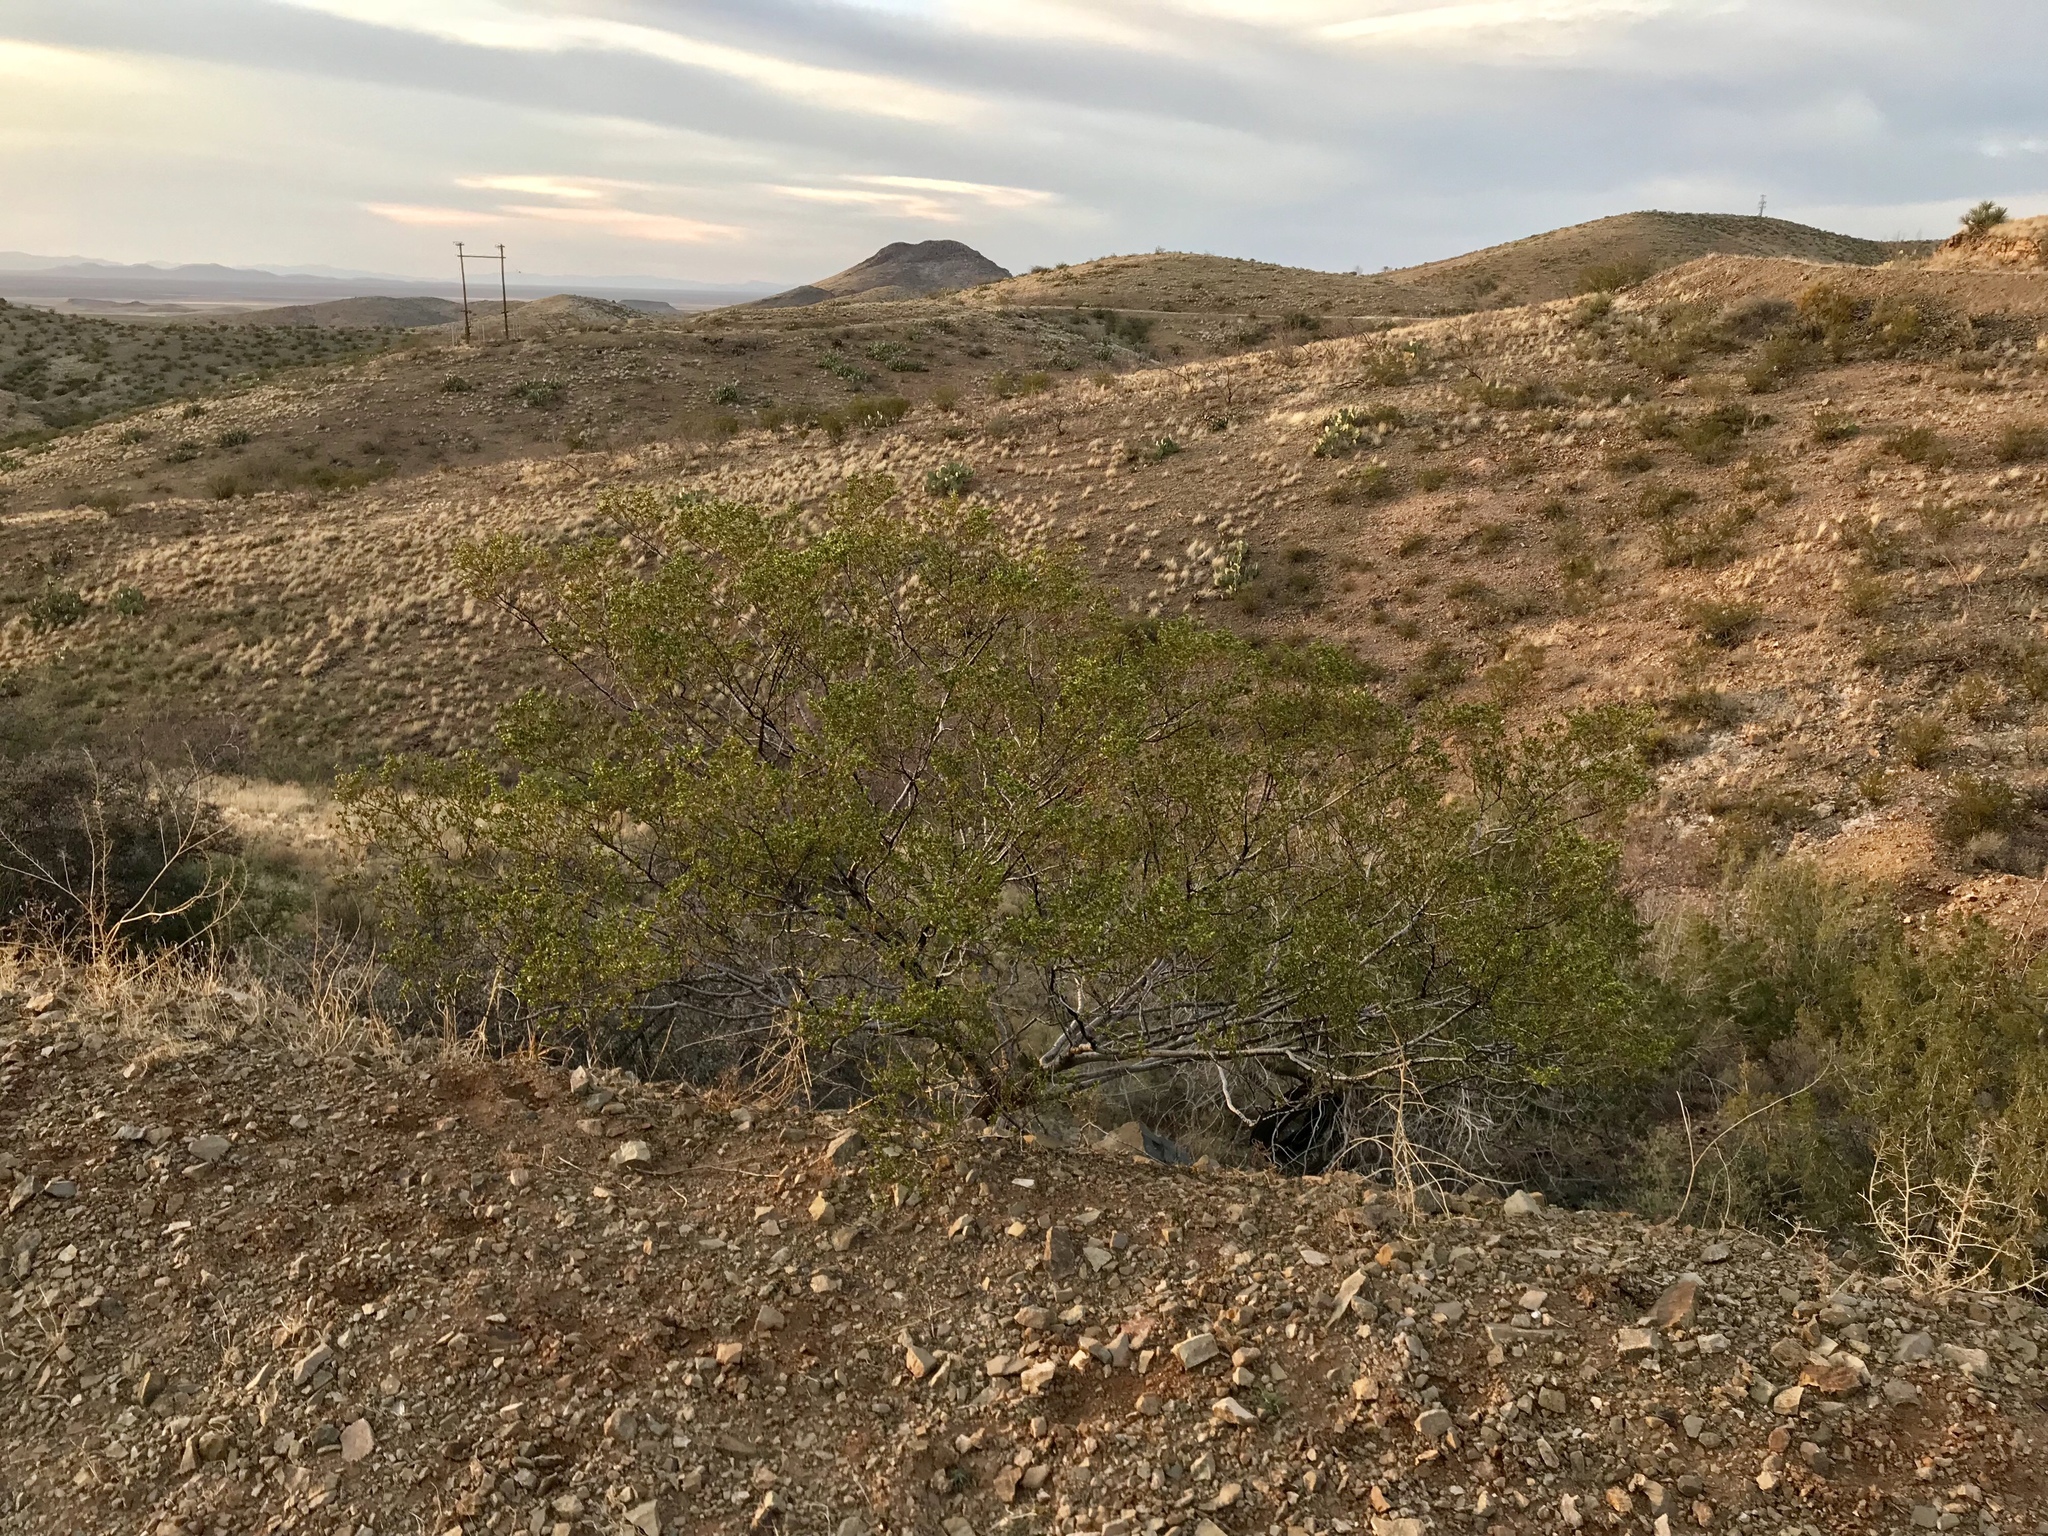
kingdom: Plantae
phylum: Tracheophyta
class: Magnoliopsida
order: Zygophyllales
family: Zygophyllaceae
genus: Larrea
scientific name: Larrea tridentata
